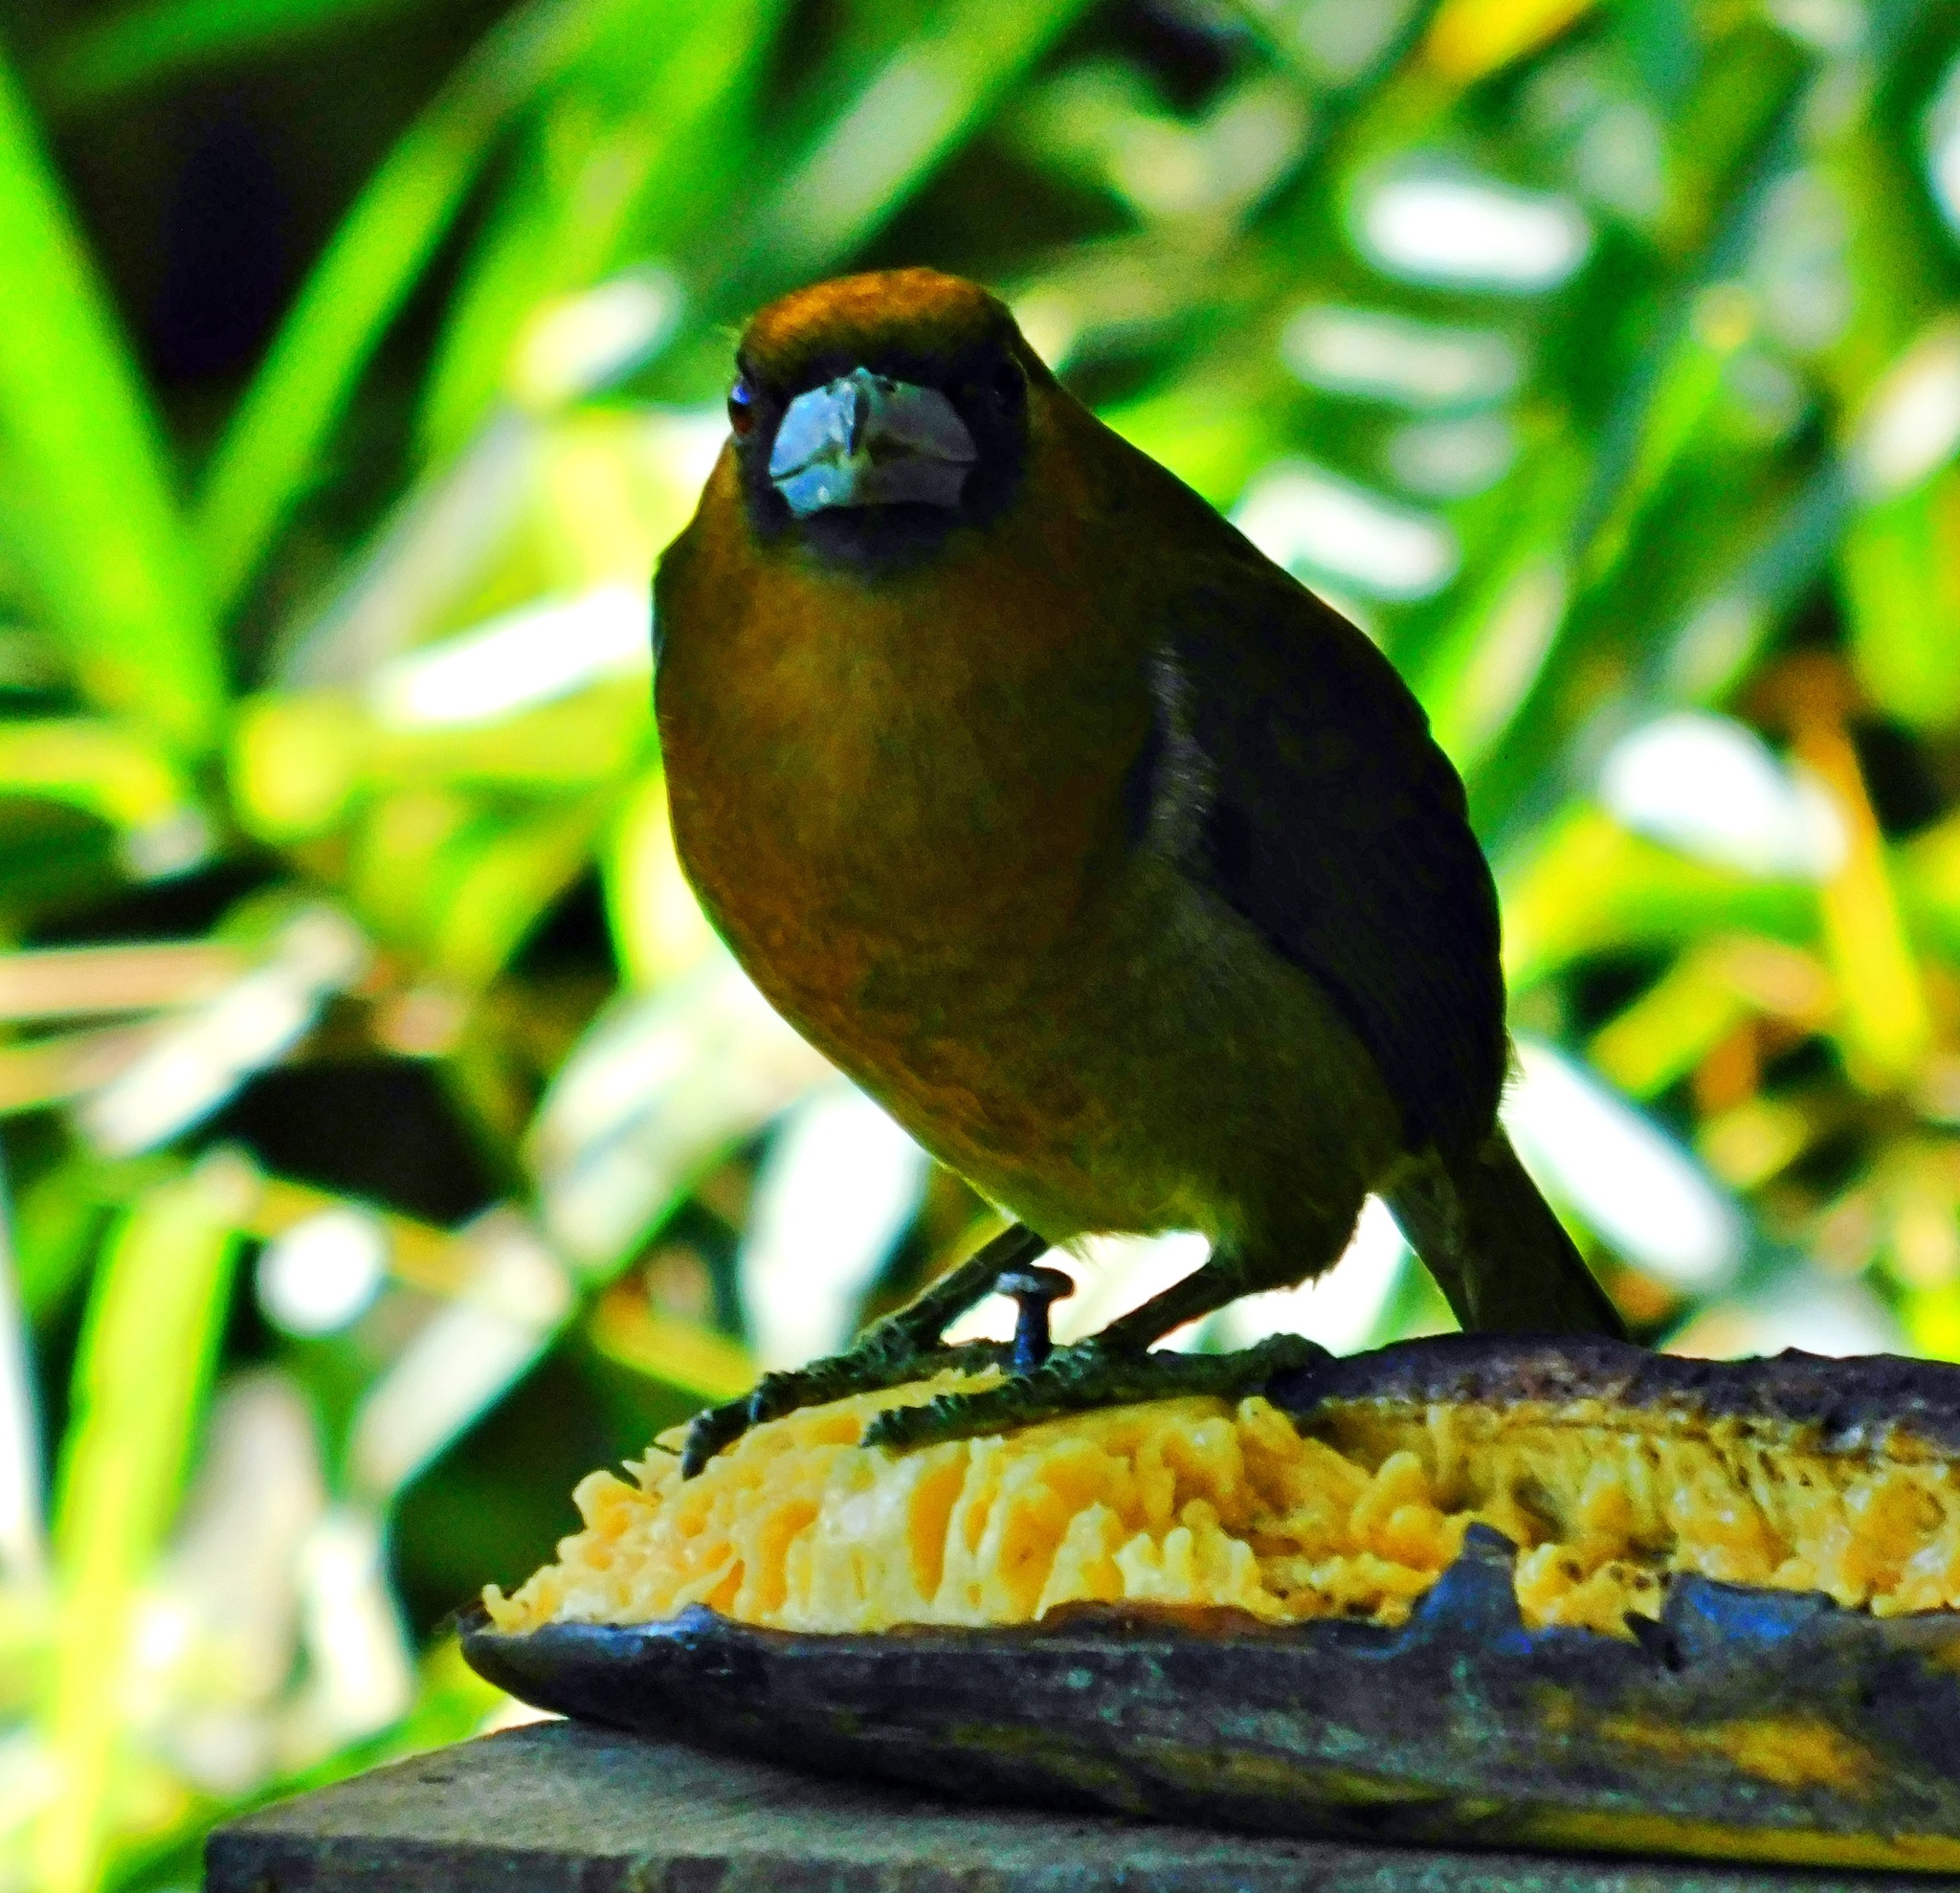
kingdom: Animalia
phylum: Chordata
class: Aves
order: Piciformes
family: Semnornithidae
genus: Semnornis
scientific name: Semnornis frantzii
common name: Prong-billed barbet
